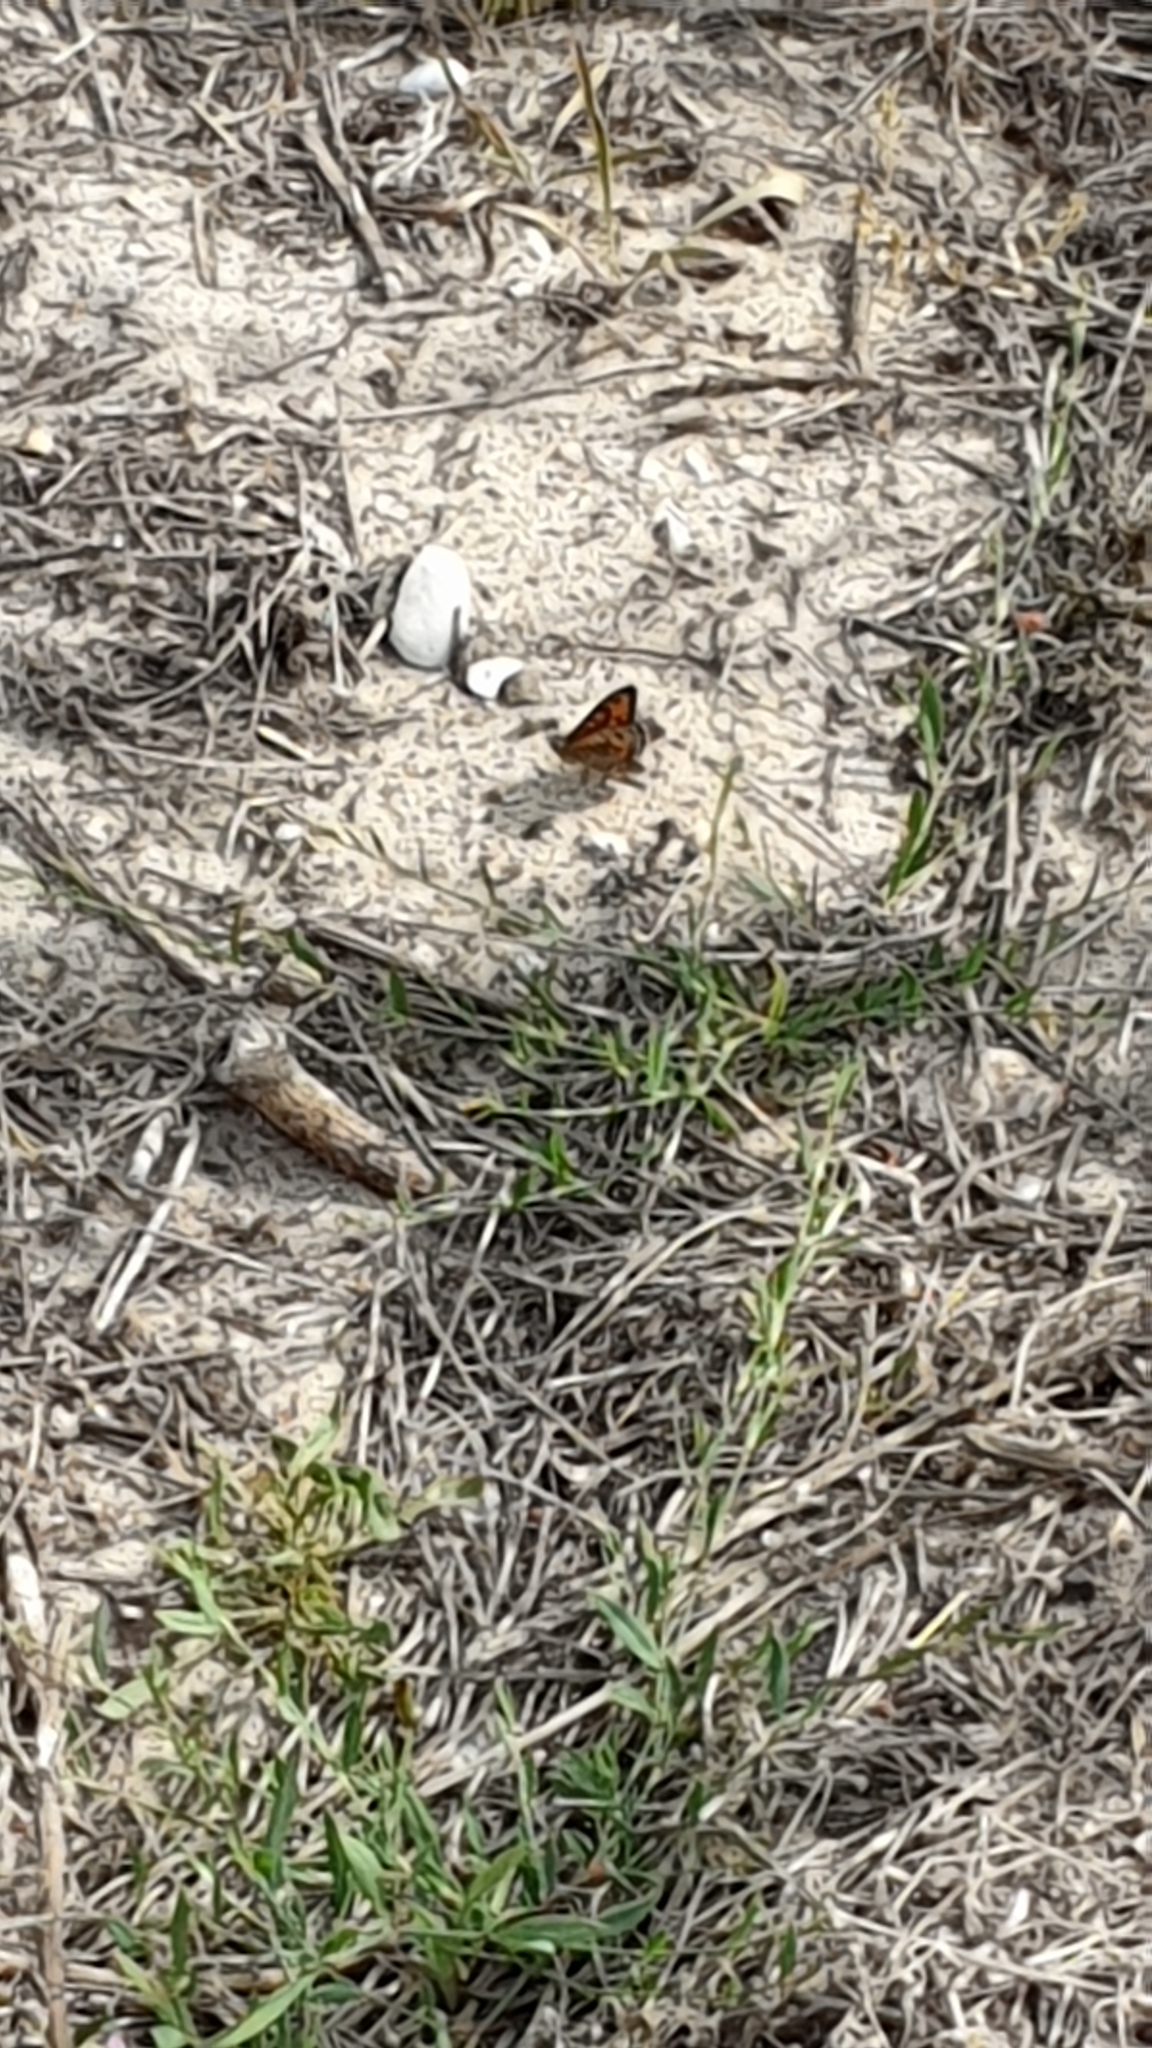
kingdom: Animalia
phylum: Arthropoda
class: Insecta
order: Lepidoptera
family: Nymphalidae
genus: Pararge
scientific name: Pararge Lasiommata megera
